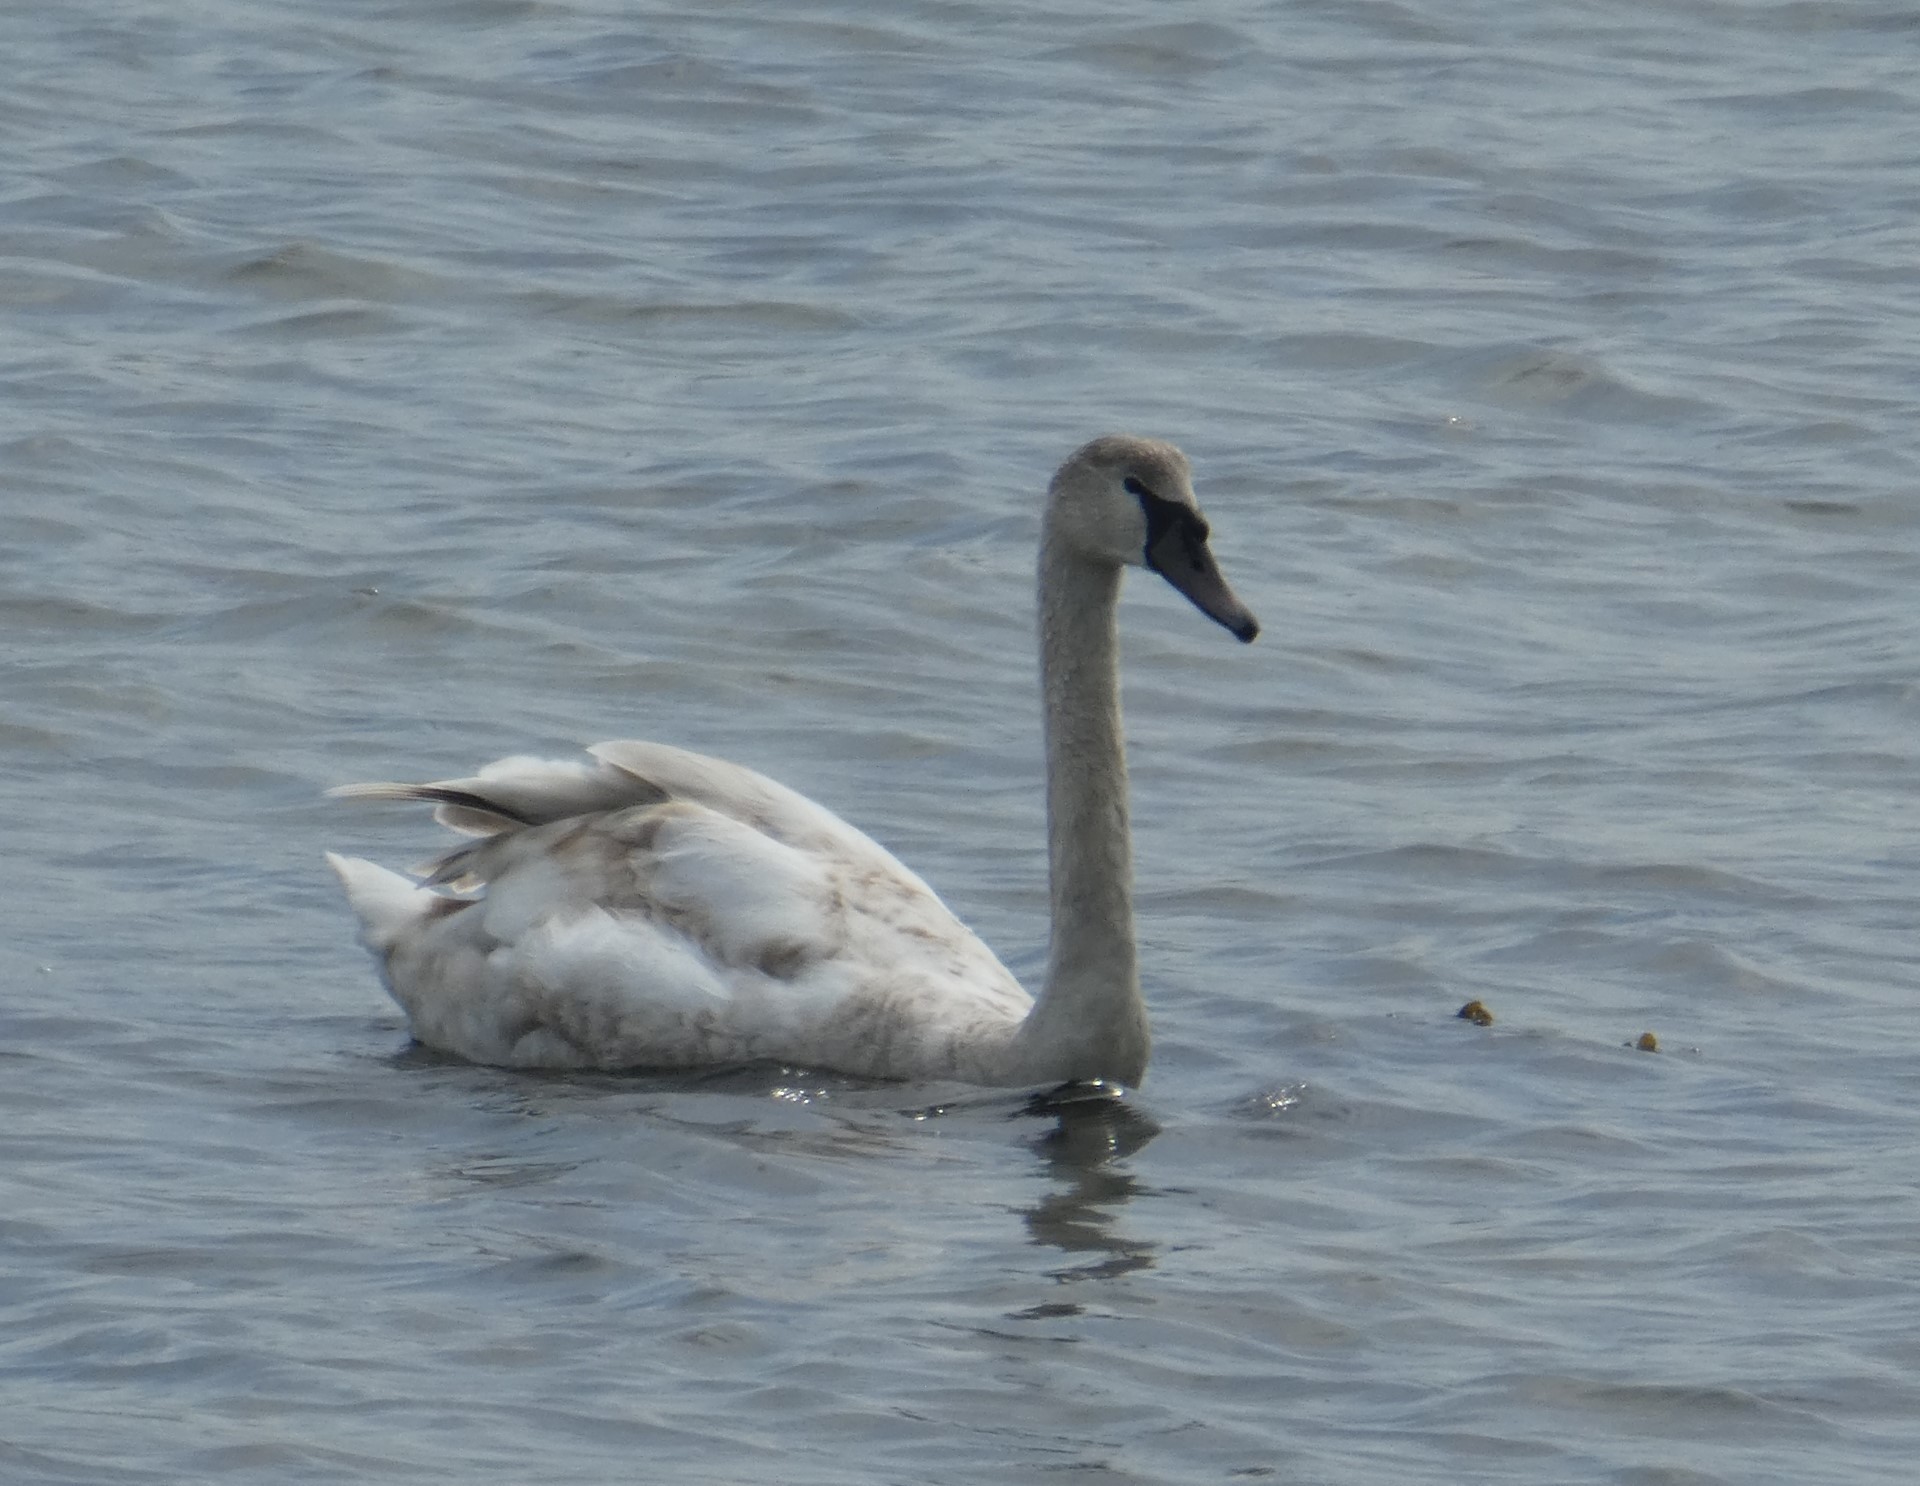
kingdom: Animalia
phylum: Chordata
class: Aves
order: Anseriformes
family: Anatidae
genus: Cygnus
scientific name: Cygnus olor
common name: Mute swan
